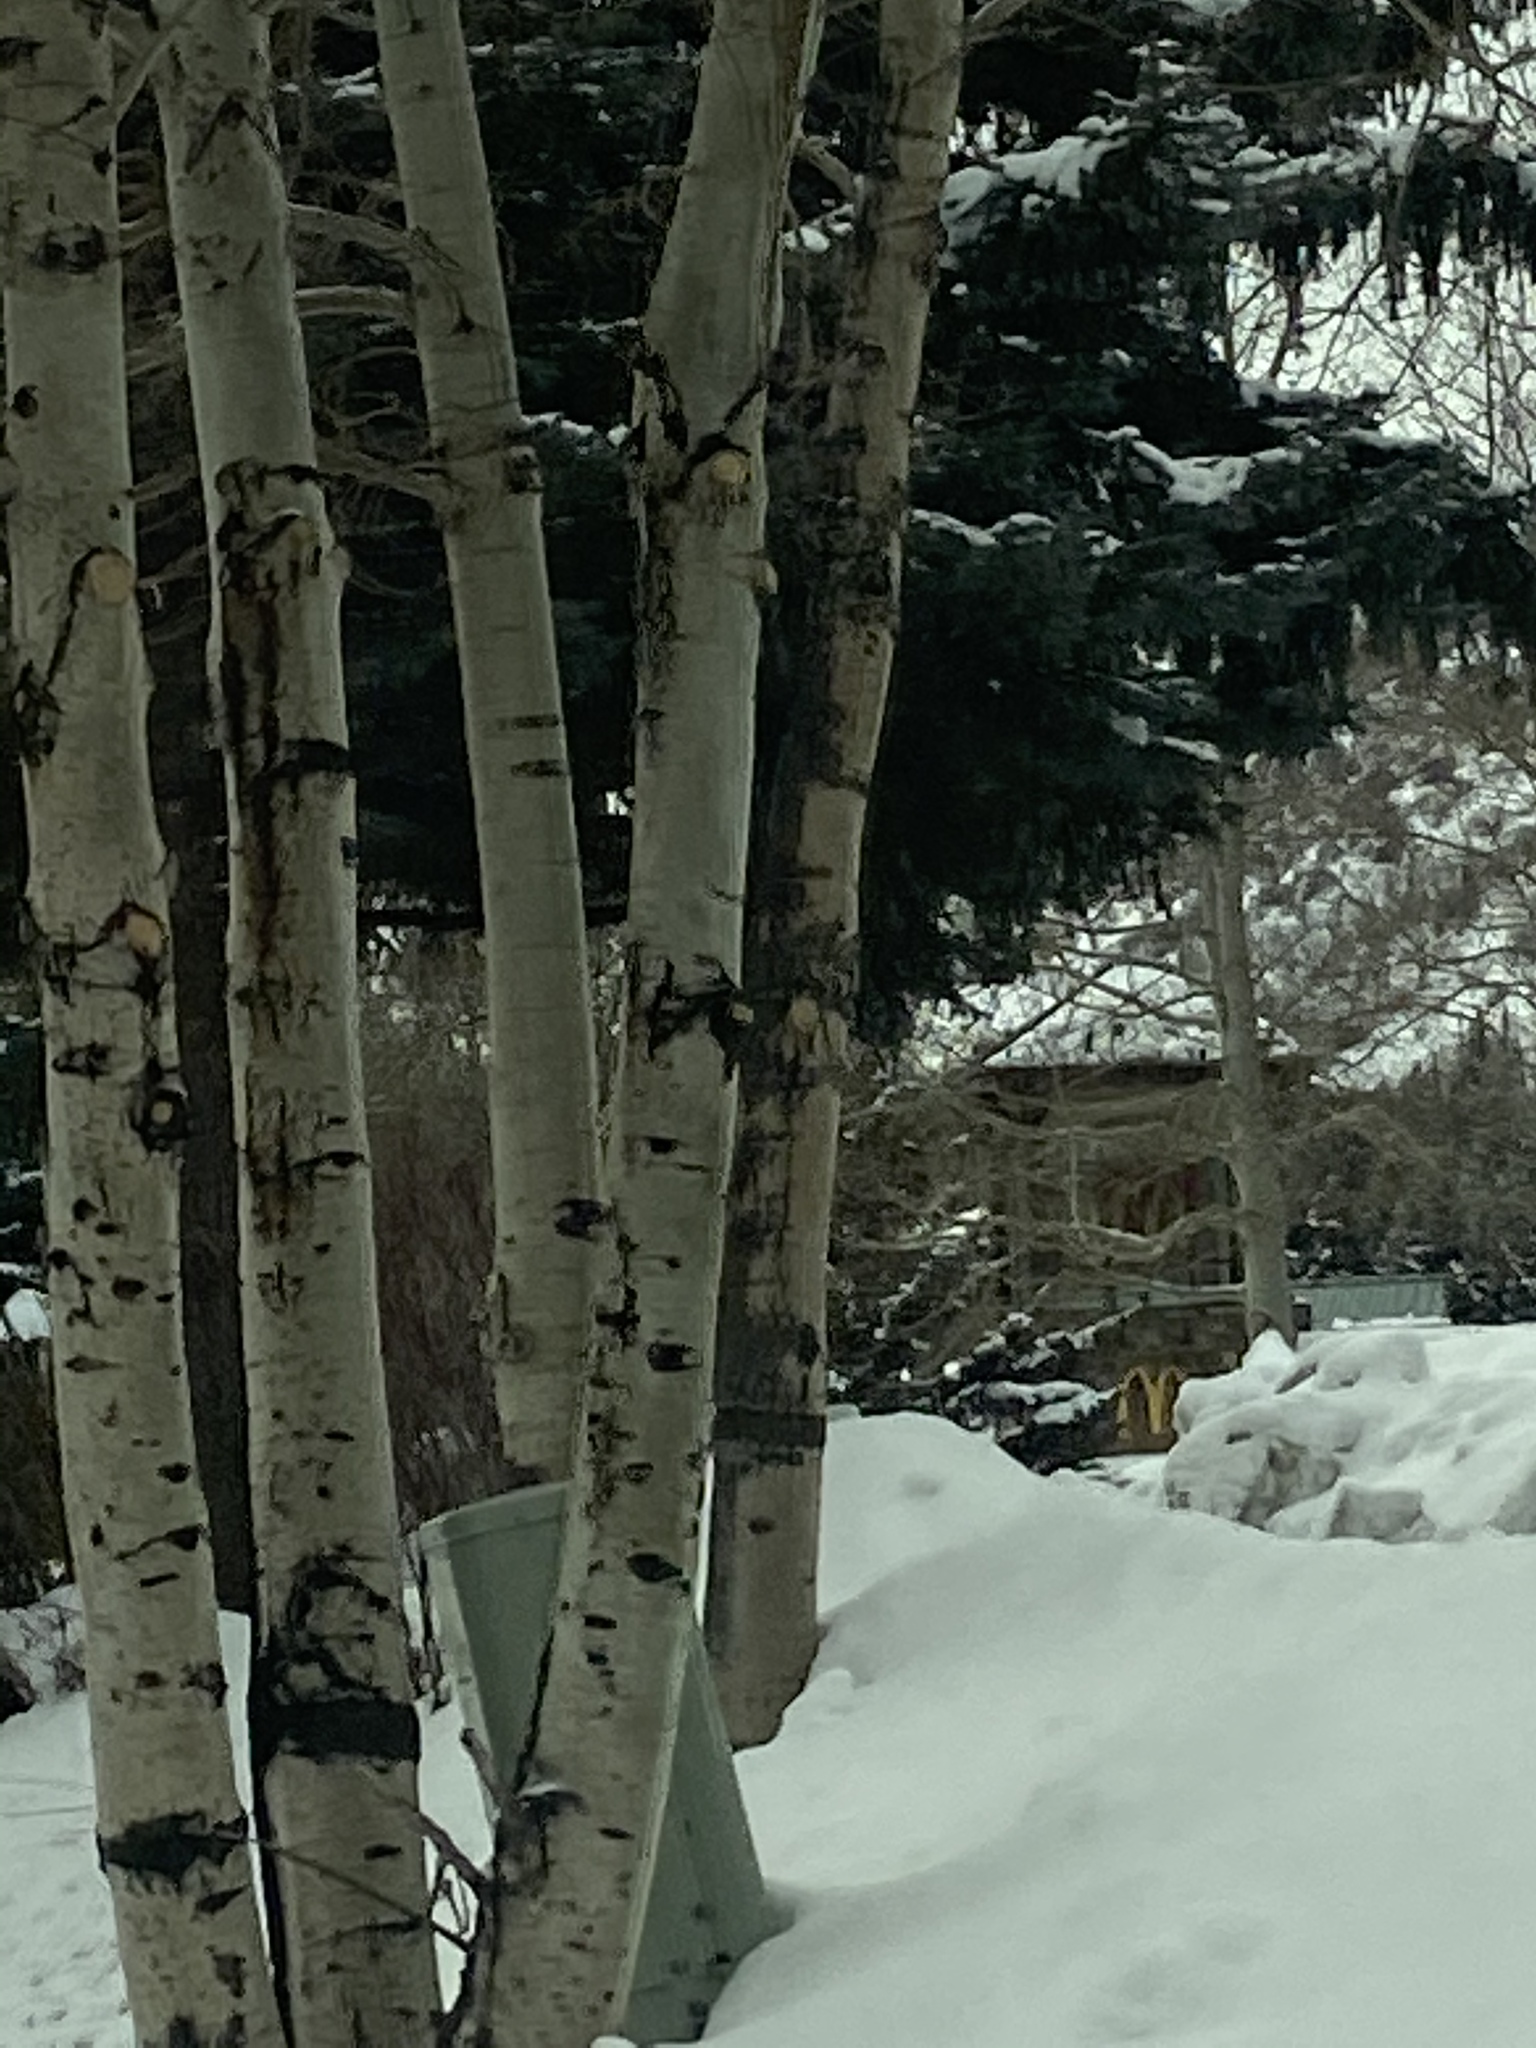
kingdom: Plantae
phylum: Tracheophyta
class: Magnoliopsida
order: Malpighiales
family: Salicaceae
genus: Populus
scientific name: Populus tremuloides
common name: Quaking aspen
